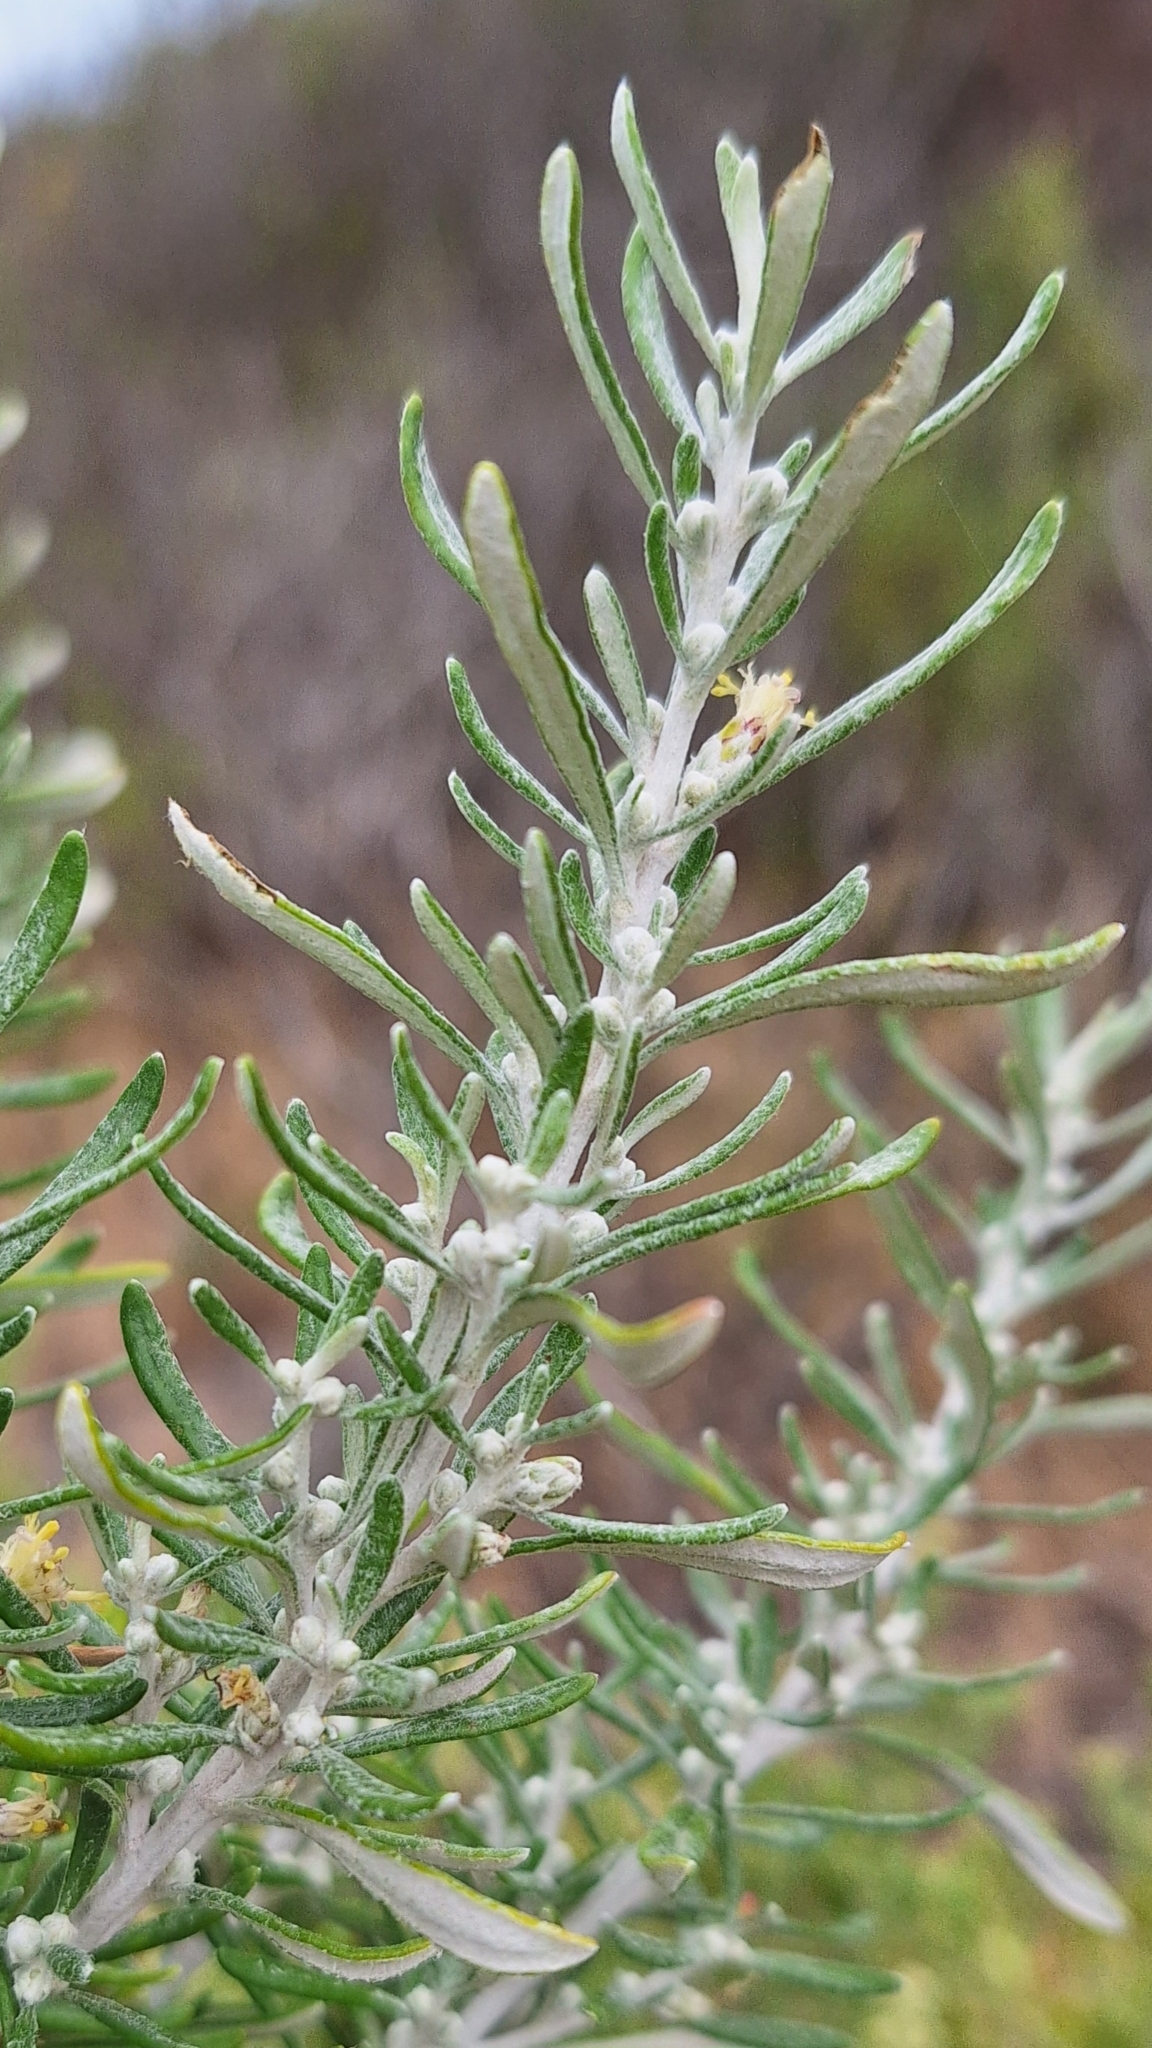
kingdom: Plantae
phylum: Tracheophyta
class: Magnoliopsida
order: Asterales
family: Asteraceae
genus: Olearia
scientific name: Olearia axillaris
